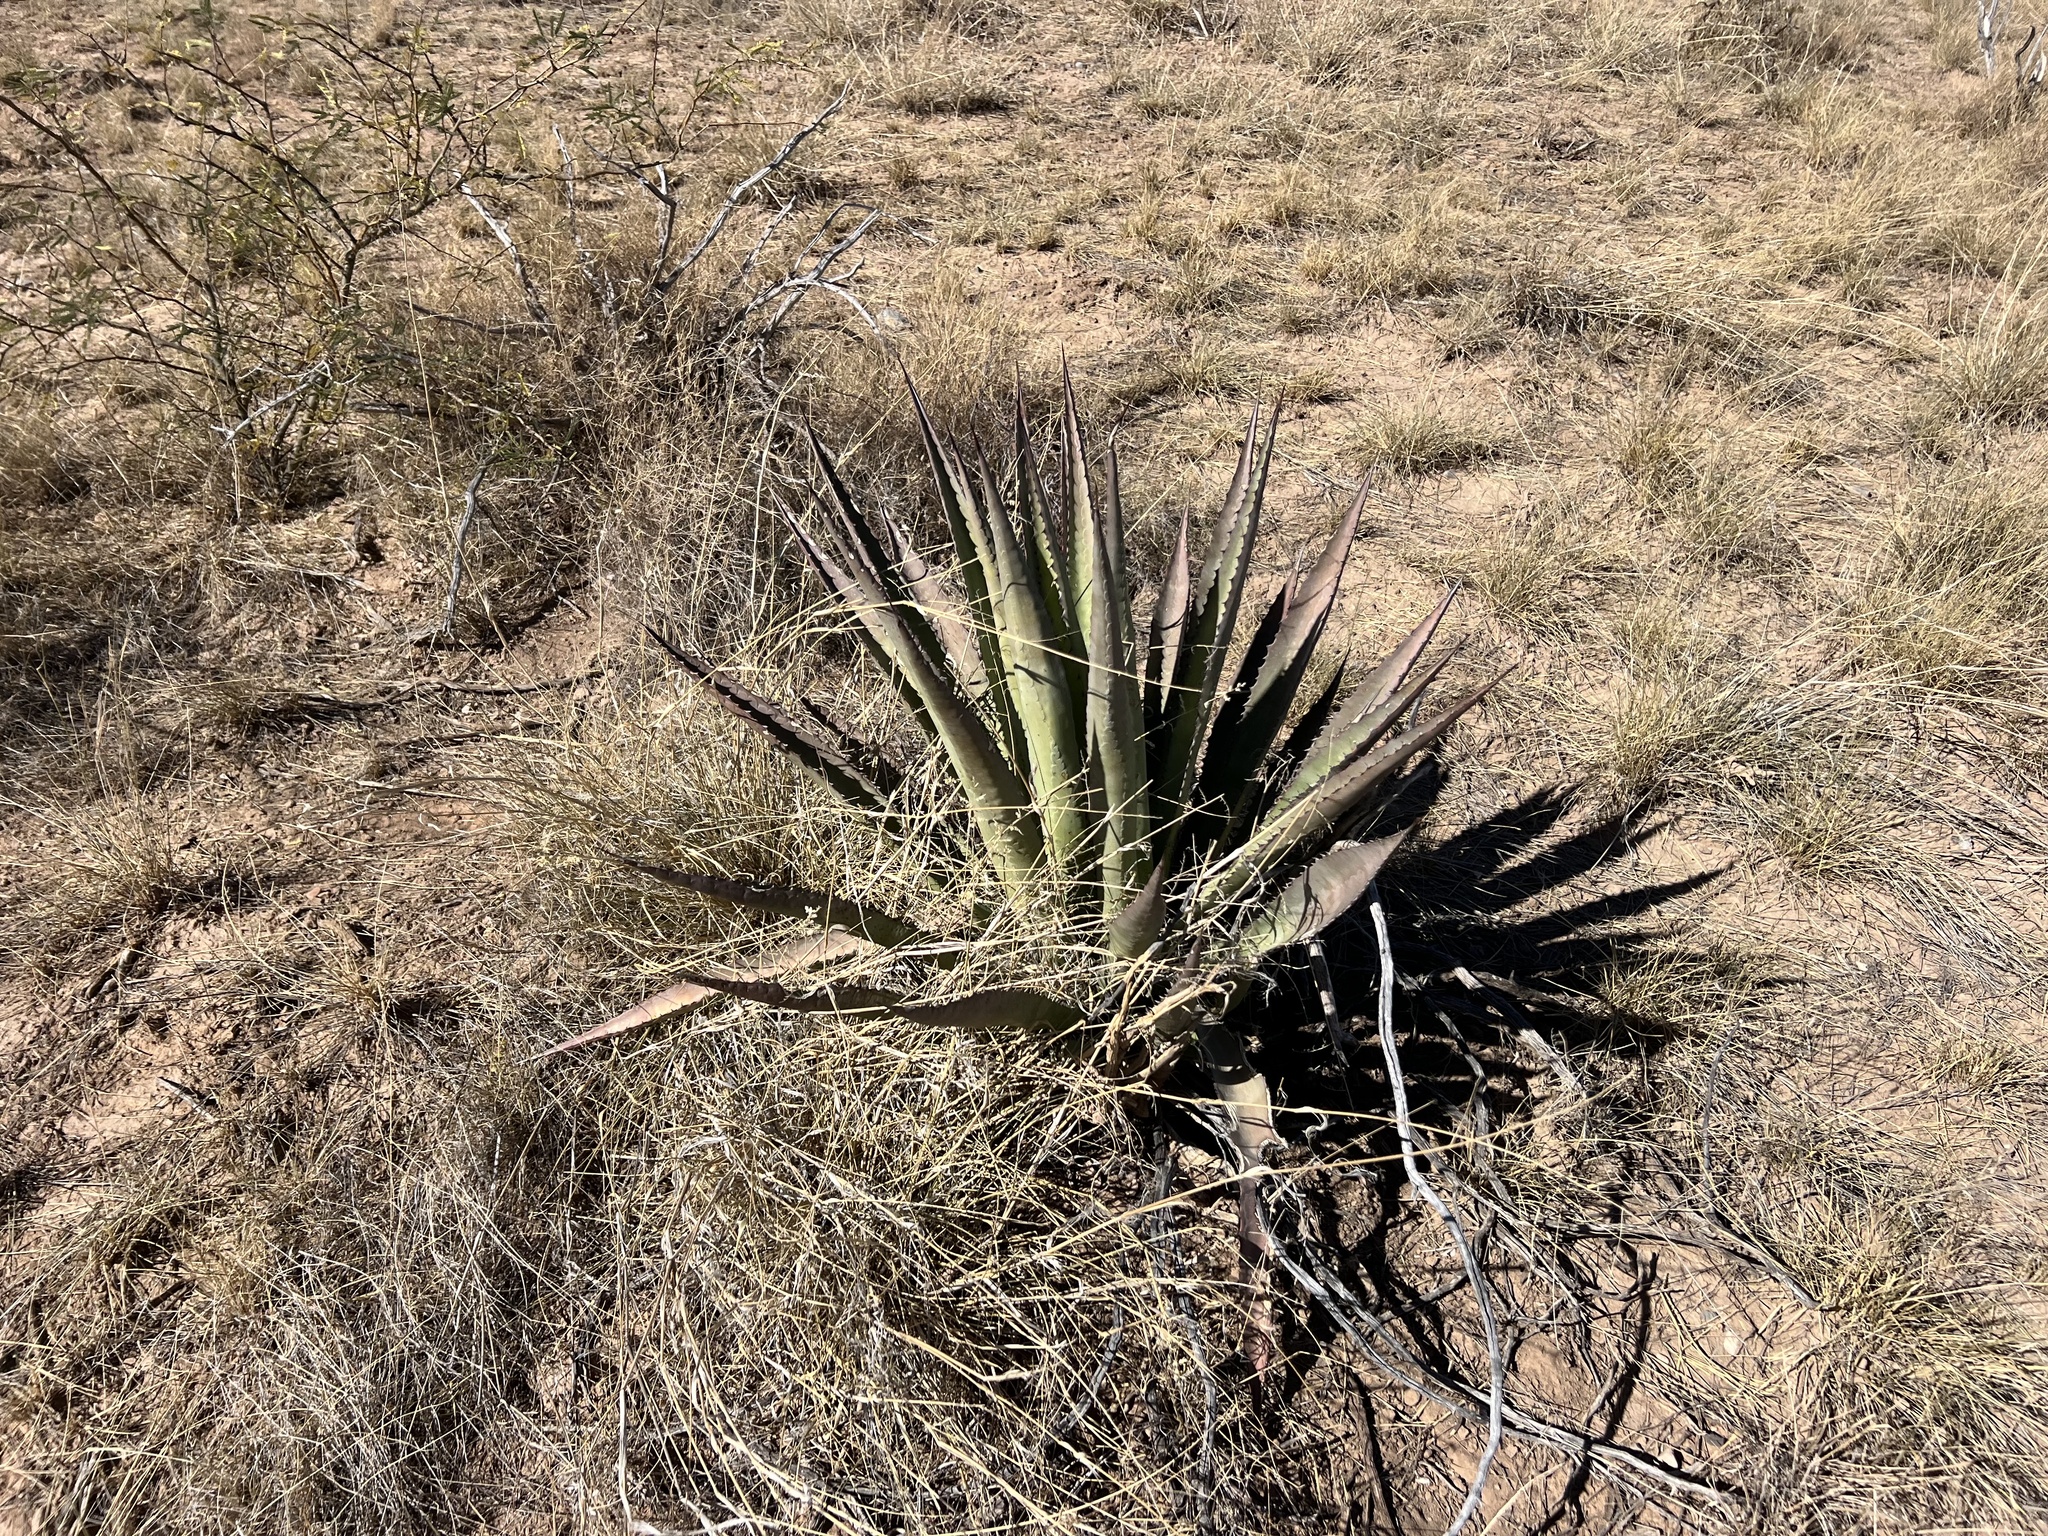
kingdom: Plantae
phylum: Tracheophyta
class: Liliopsida
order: Asparagales
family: Asparagaceae
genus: Agave
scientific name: Agave palmeri
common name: Palmer agave
